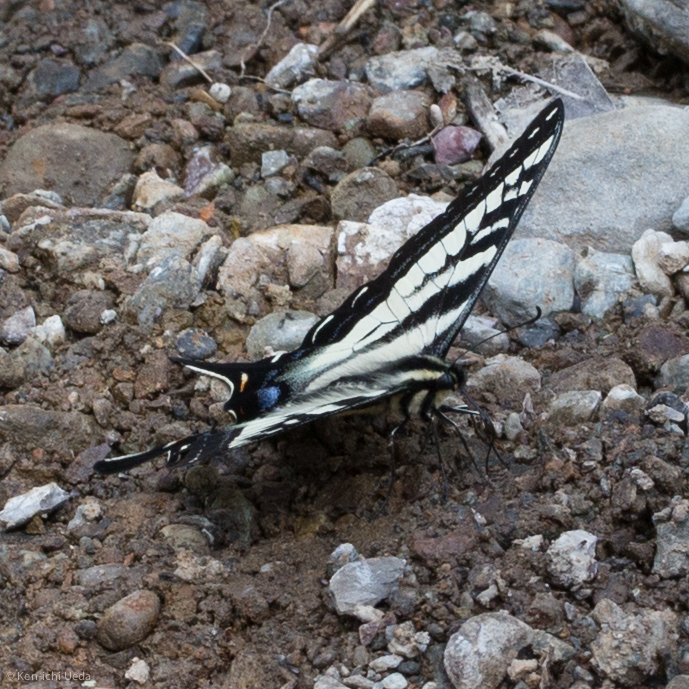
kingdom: Animalia
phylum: Arthropoda
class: Insecta
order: Lepidoptera
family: Papilionidae
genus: Papilio
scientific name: Papilio eurymedon
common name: Pale tiger swallowtail
